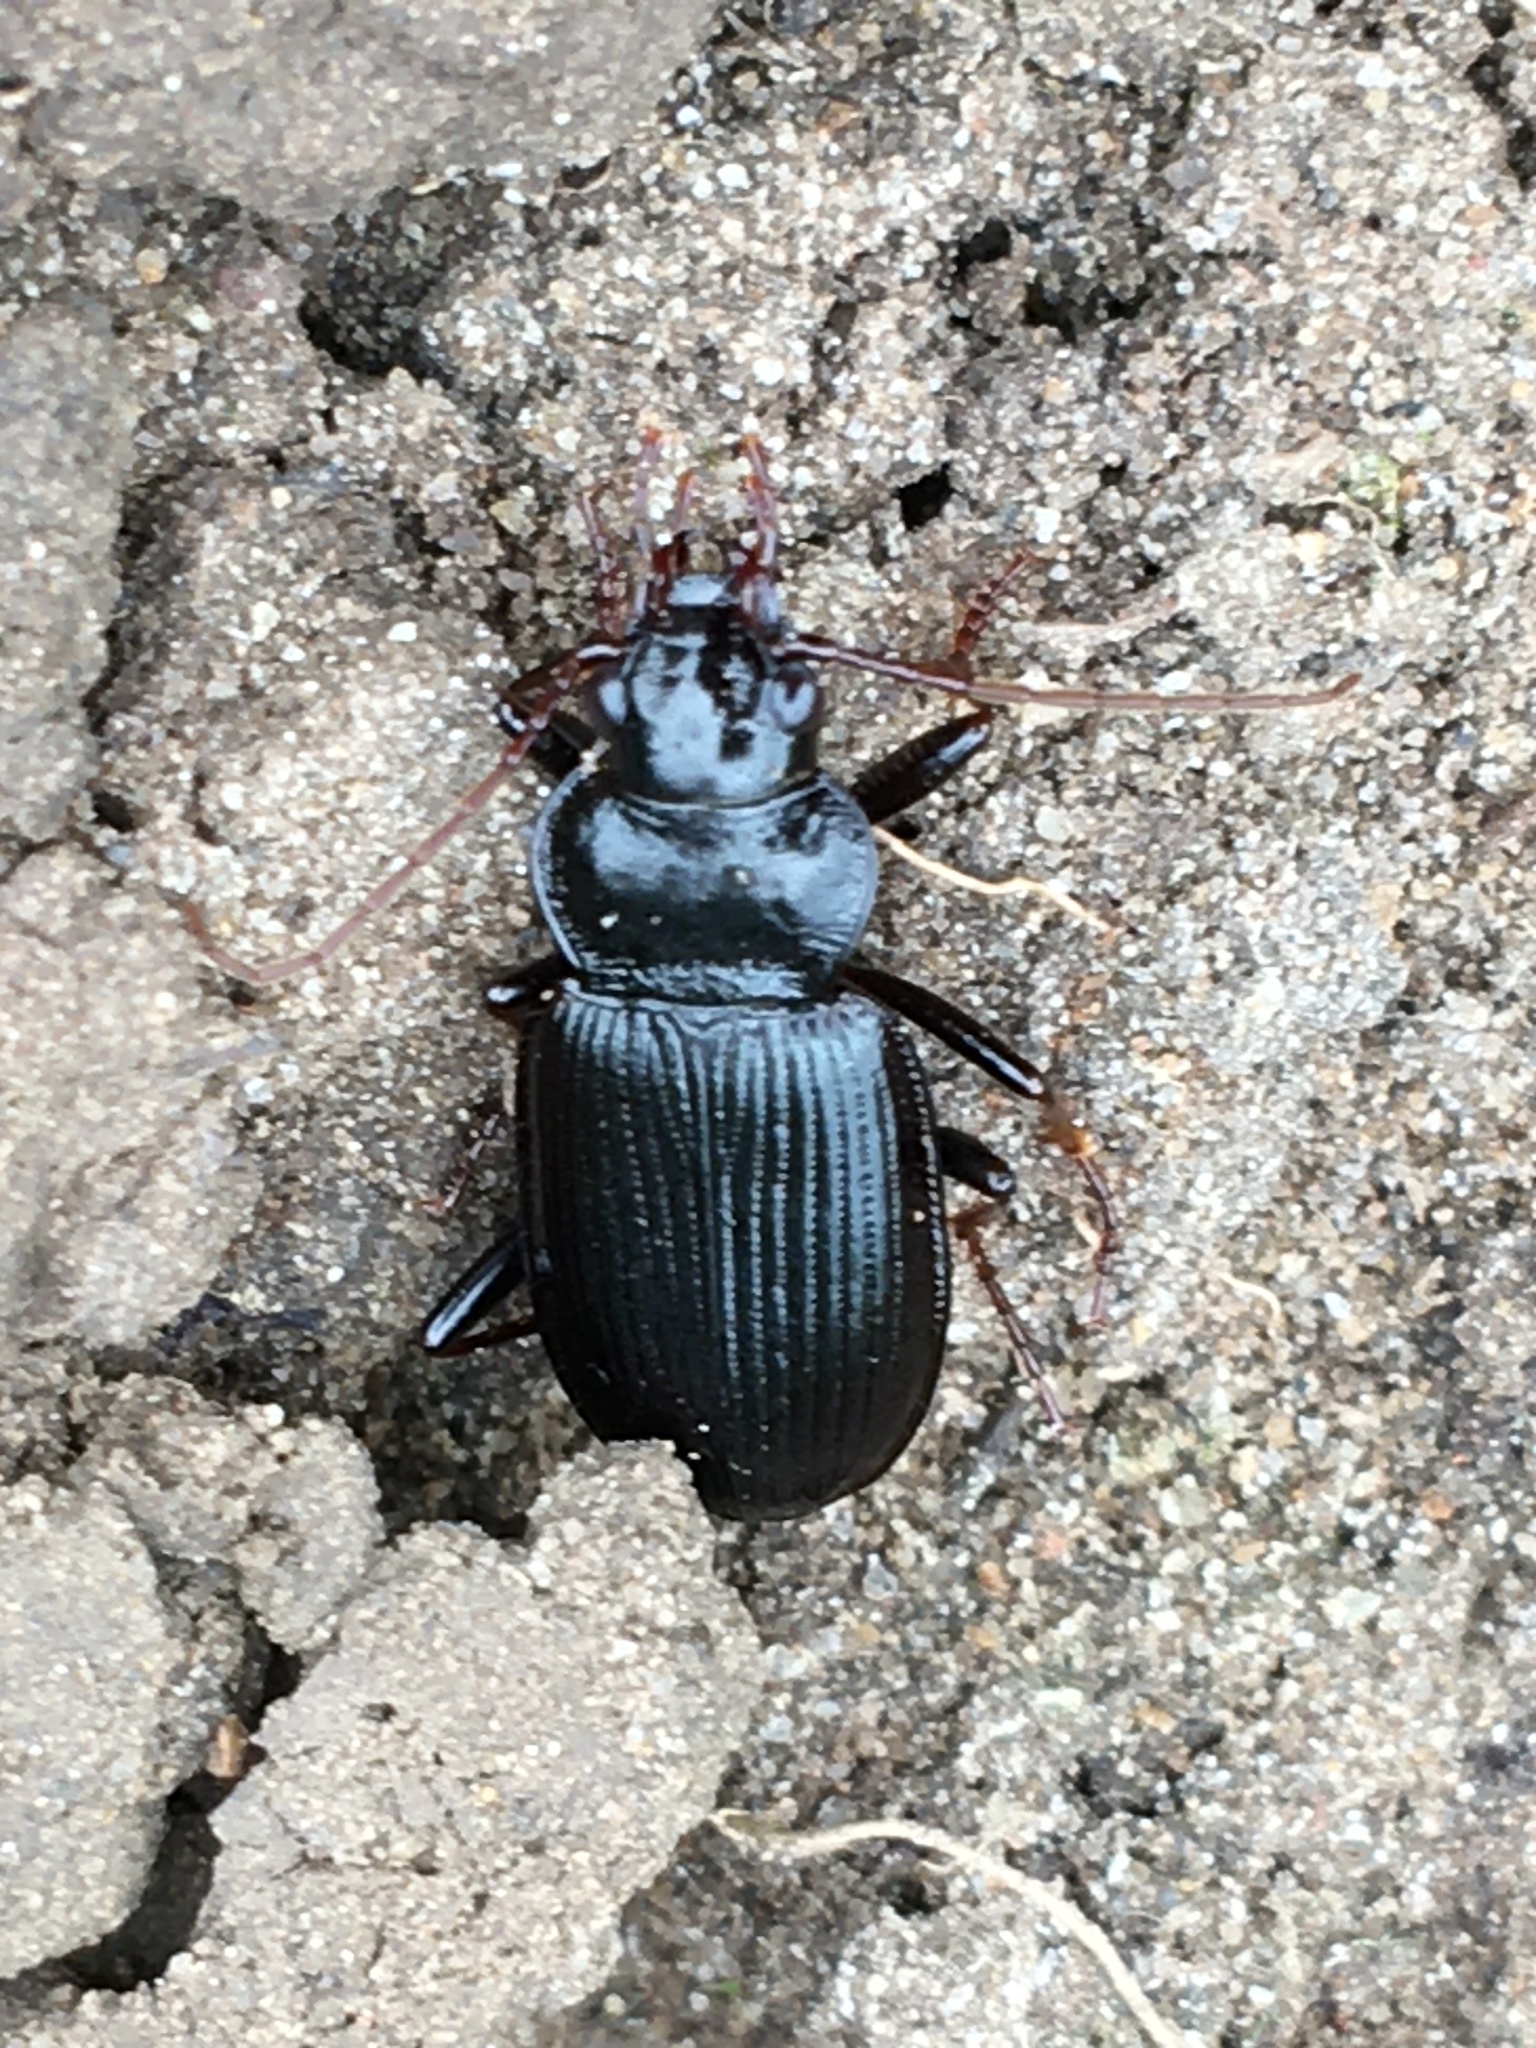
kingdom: Animalia
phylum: Arthropoda
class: Insecta
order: Coleoptera
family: Carabidae
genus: Nebria
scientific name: Nebria brevicollis
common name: Short-necked gazelle beetle
